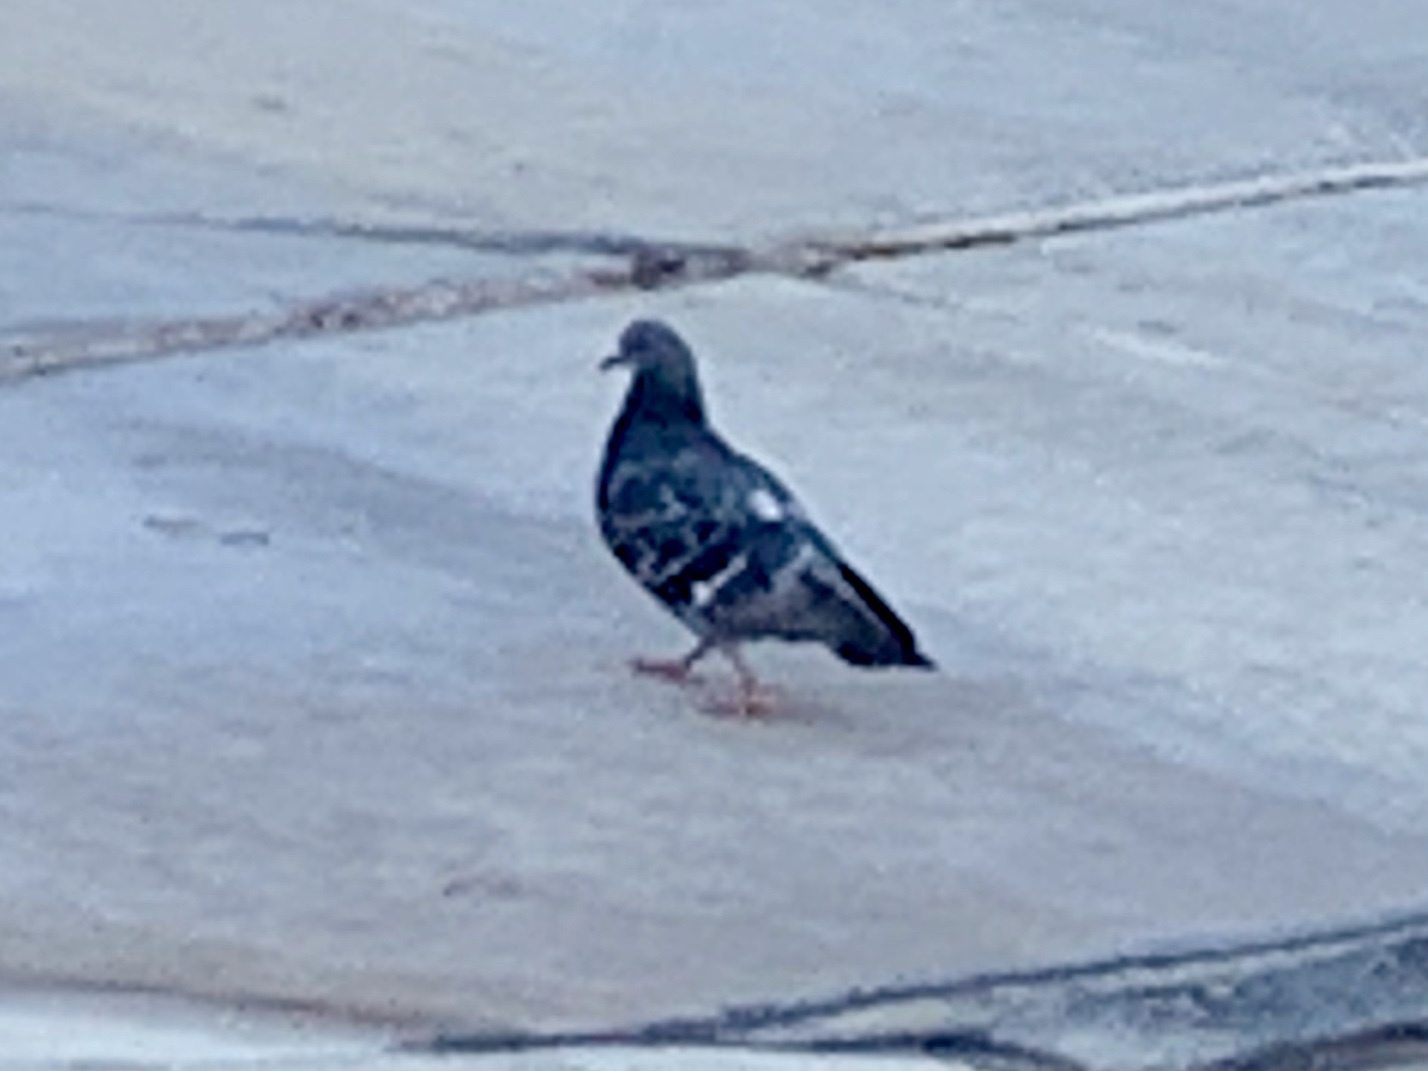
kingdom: Animalia
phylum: Chordata
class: Aves
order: Columbiformes
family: Columbidae
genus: Columba
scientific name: Columba livia
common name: Rock pigeon
